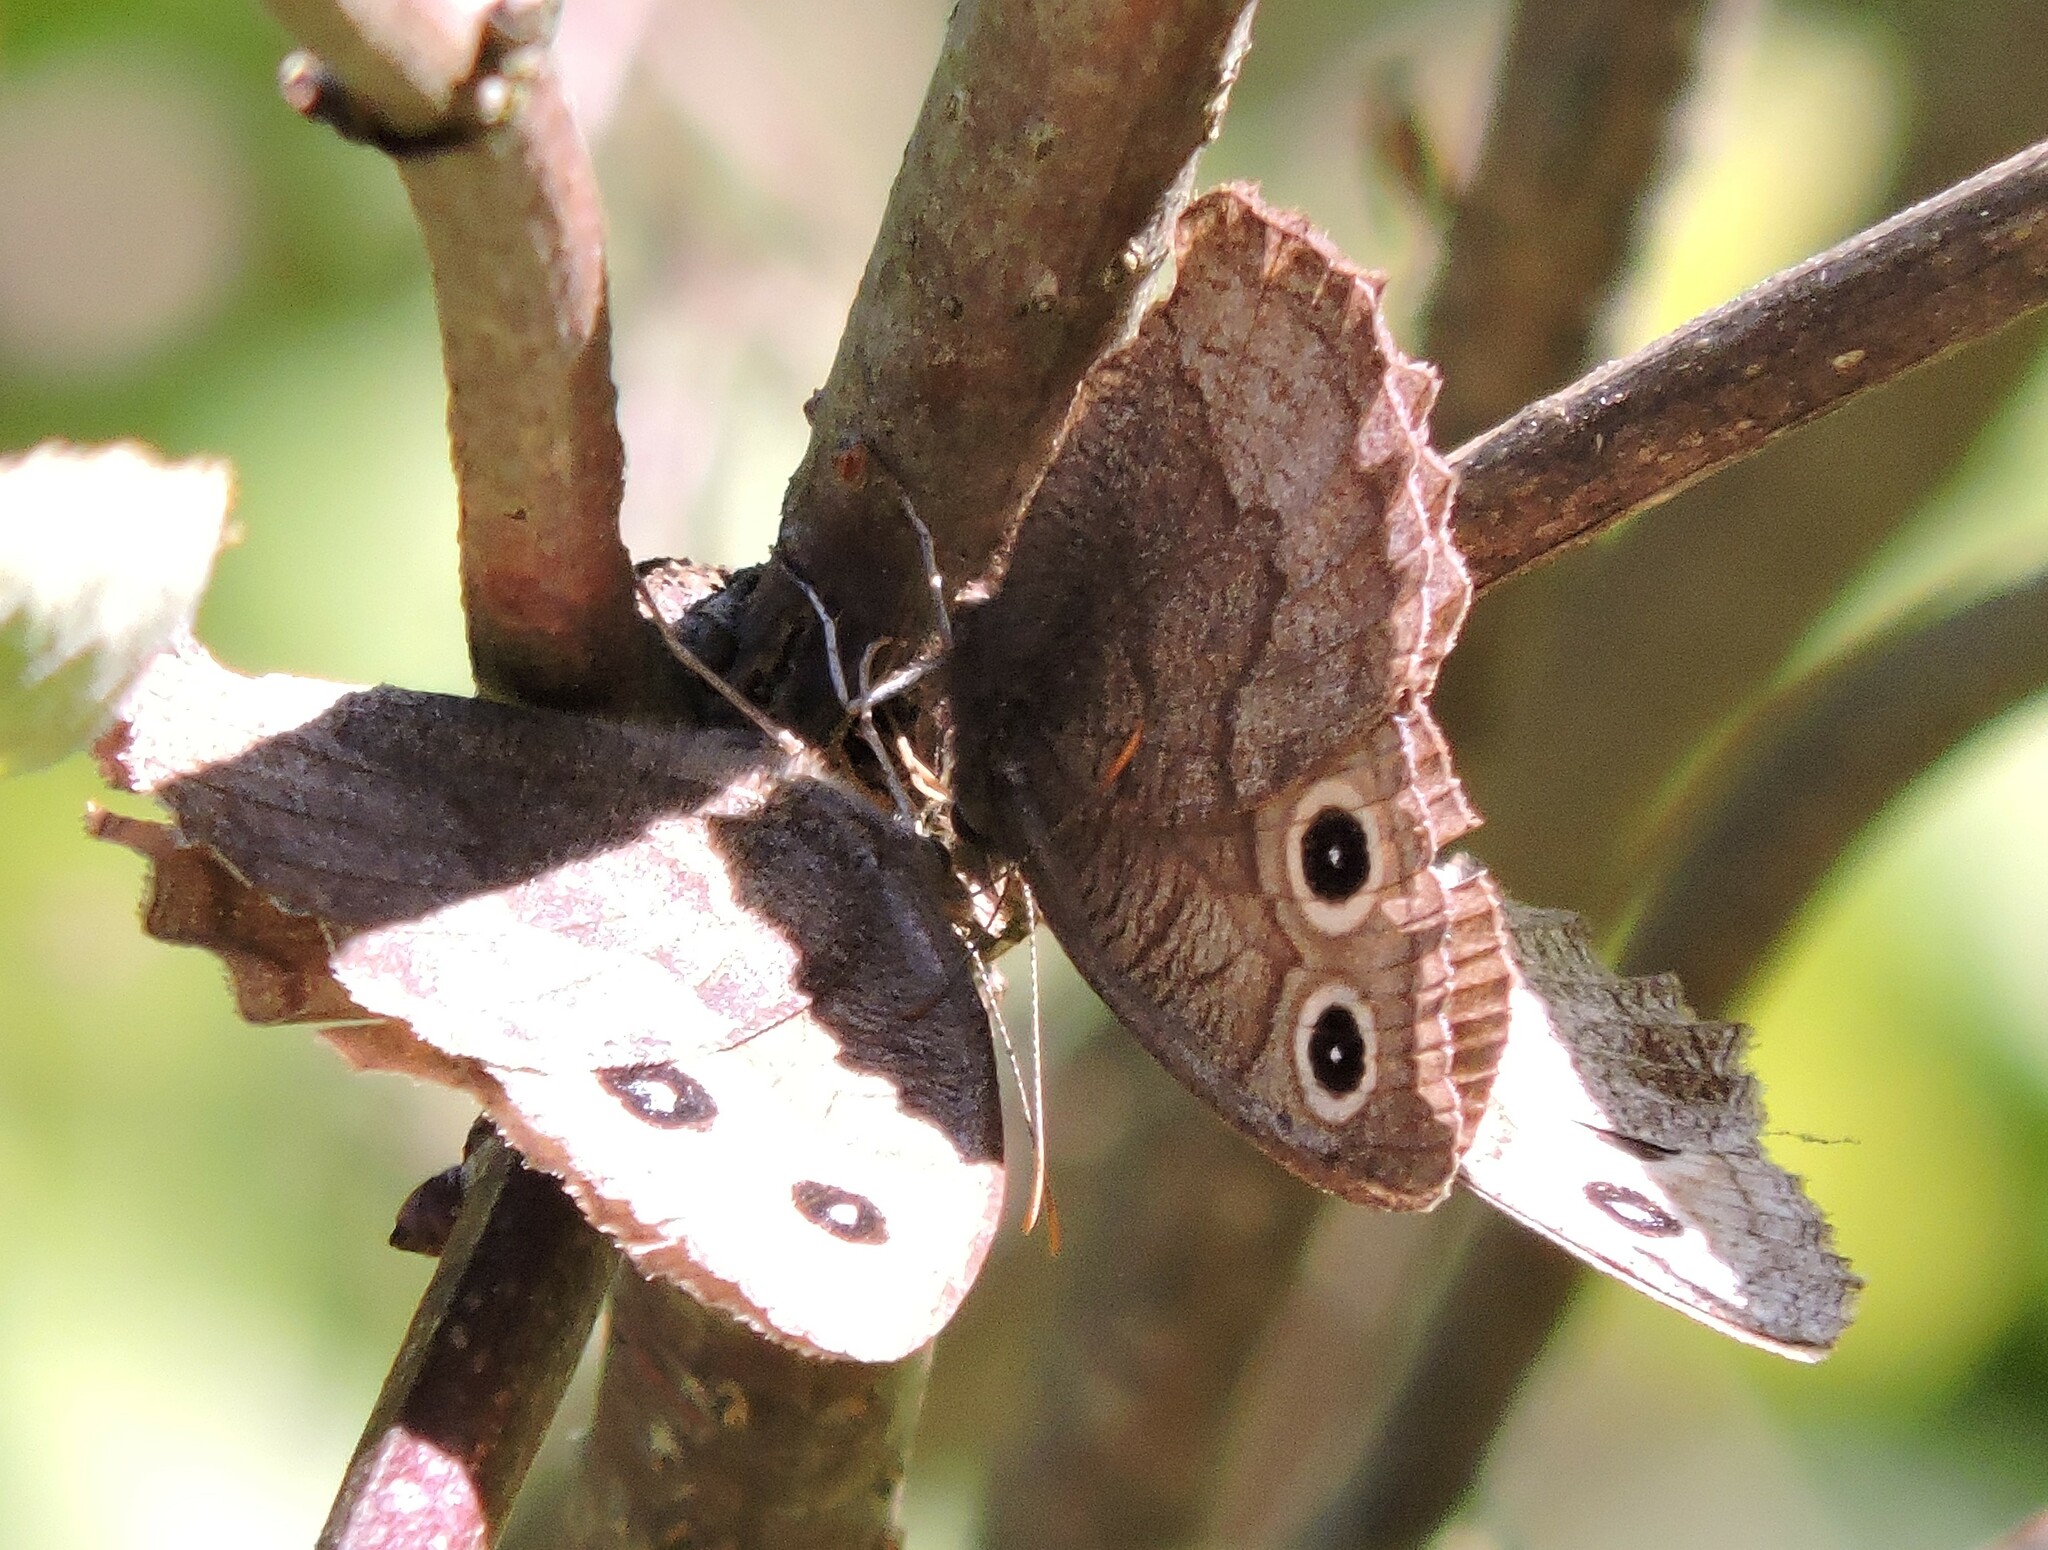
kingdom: Animalia
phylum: Arthropoda
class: Insecta
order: Lepidoptera
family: Nymphalidae
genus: Cercyonis
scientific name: Cercyonis pegala
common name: Common wood-nymph
